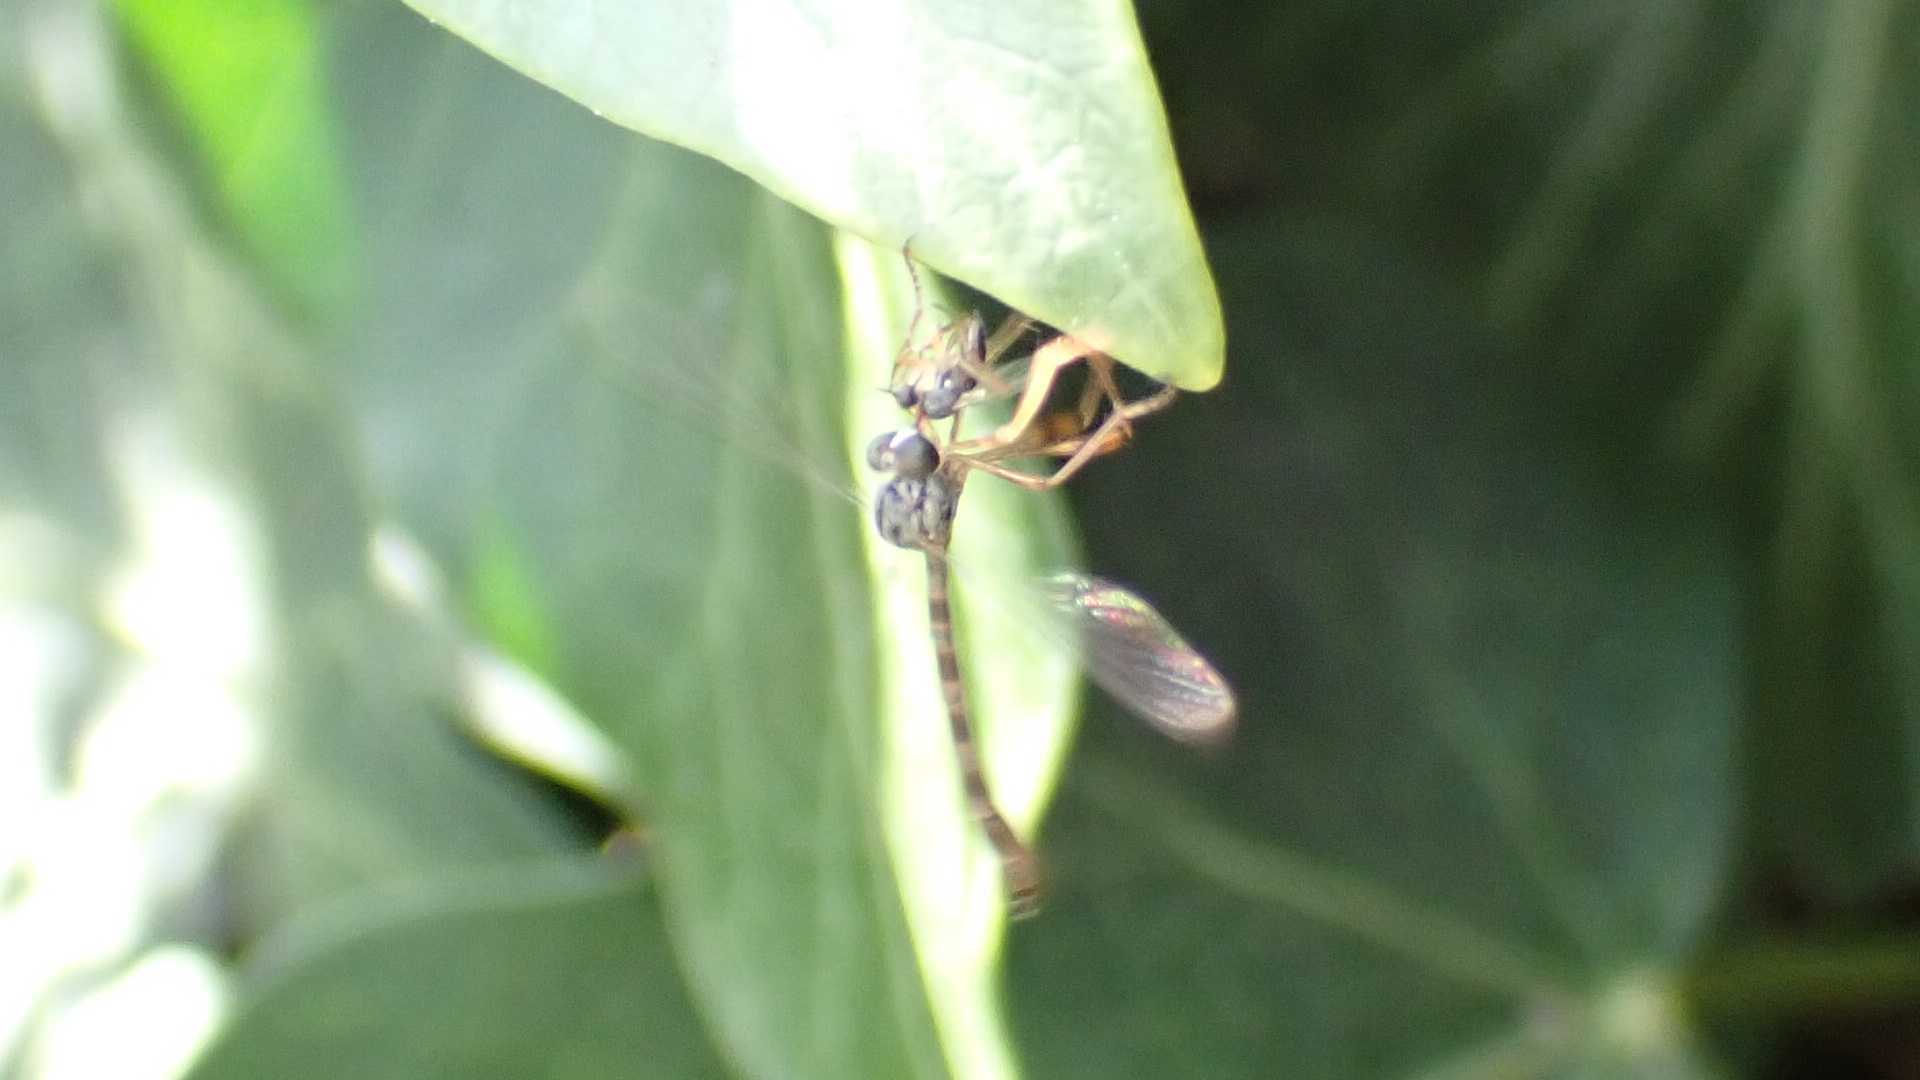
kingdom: Animalia
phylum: Arthropoda
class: Insecta
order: Diptera
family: Asilidae
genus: Leptogaster
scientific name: Leptogaster subtilis
